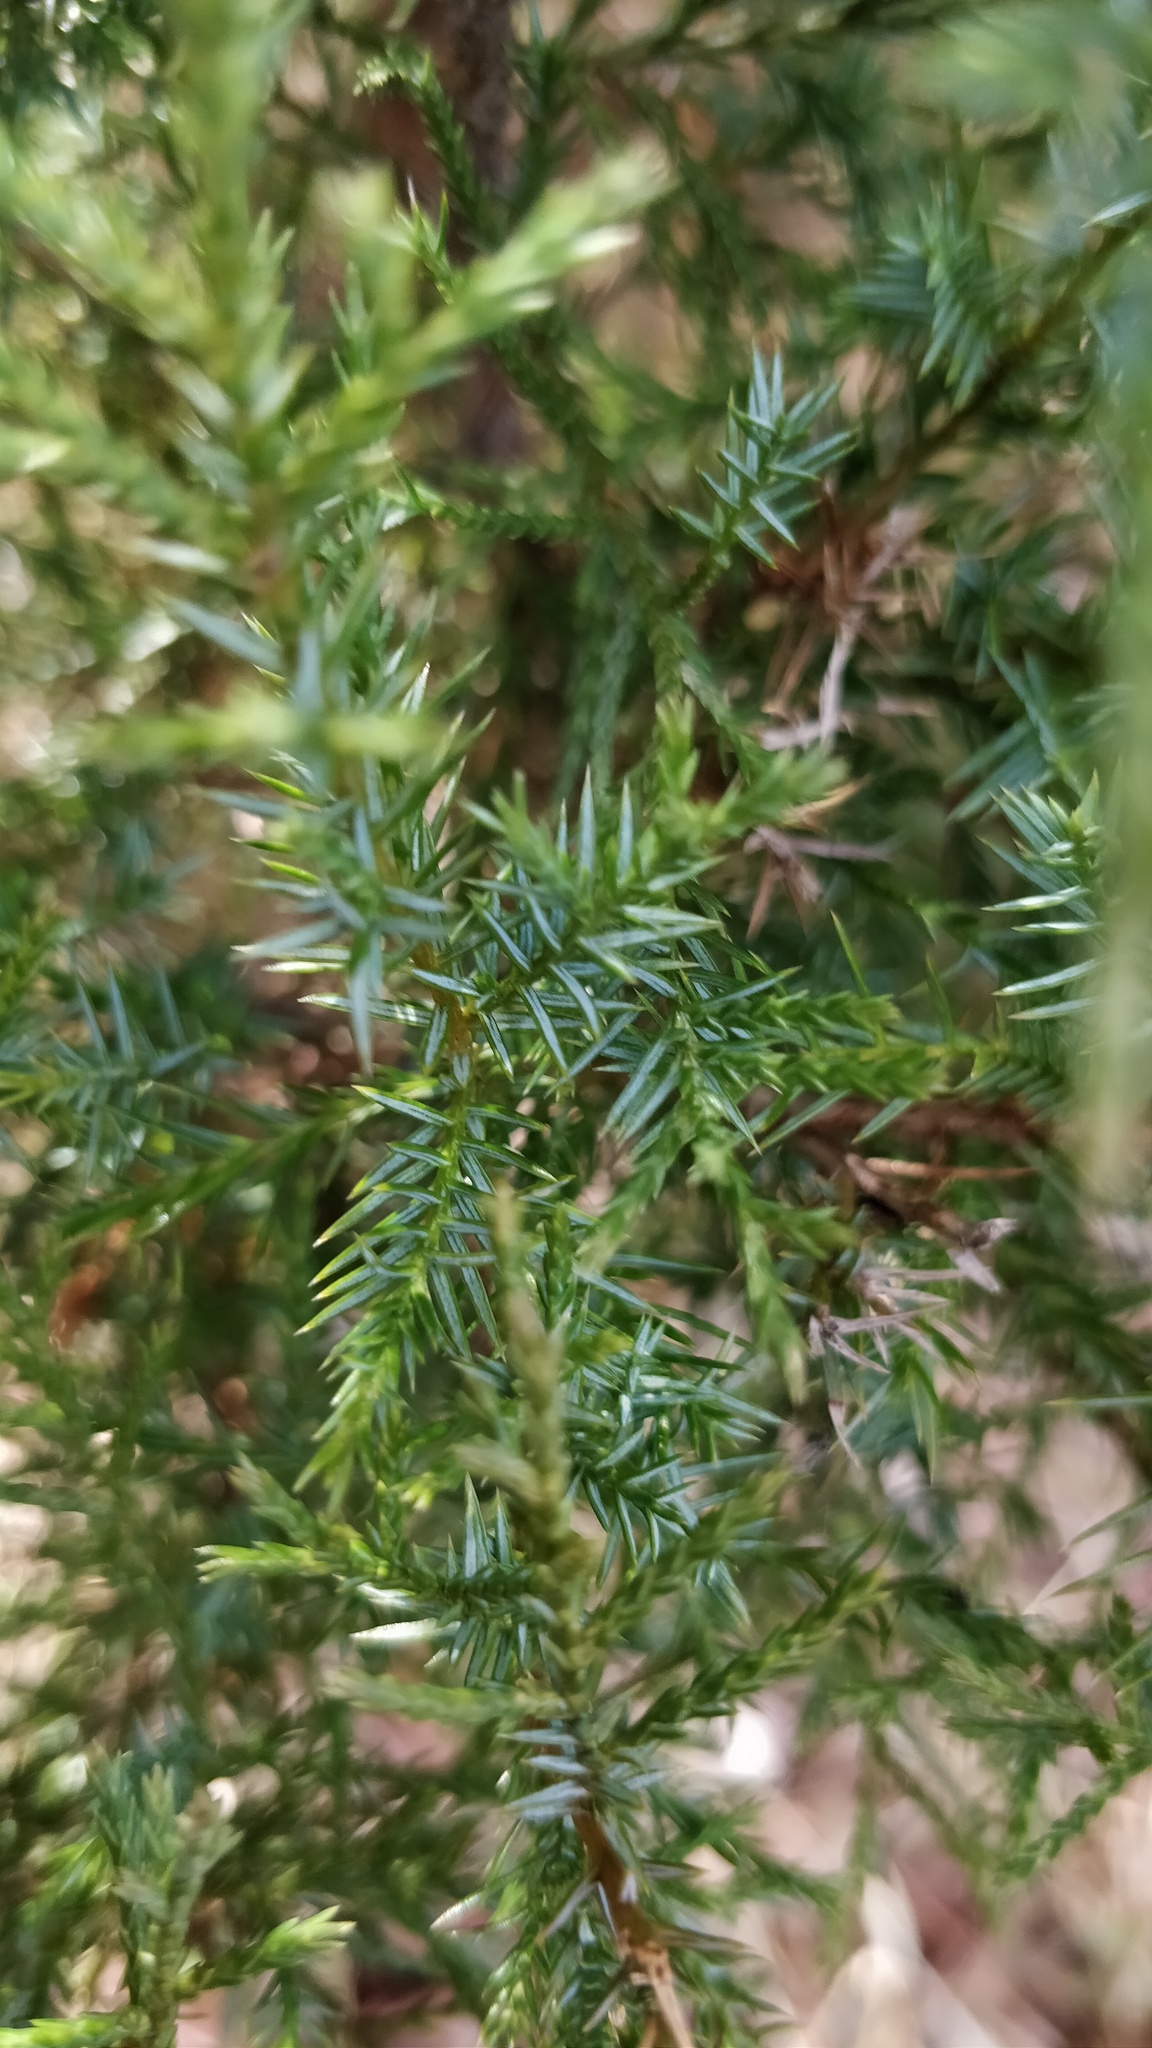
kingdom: Plantae
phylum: Tracheophyta
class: Pinopsida
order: Pinales
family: Cupressaceae
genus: Juniperus
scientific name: Juniperus virginiana
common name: Red juniper
